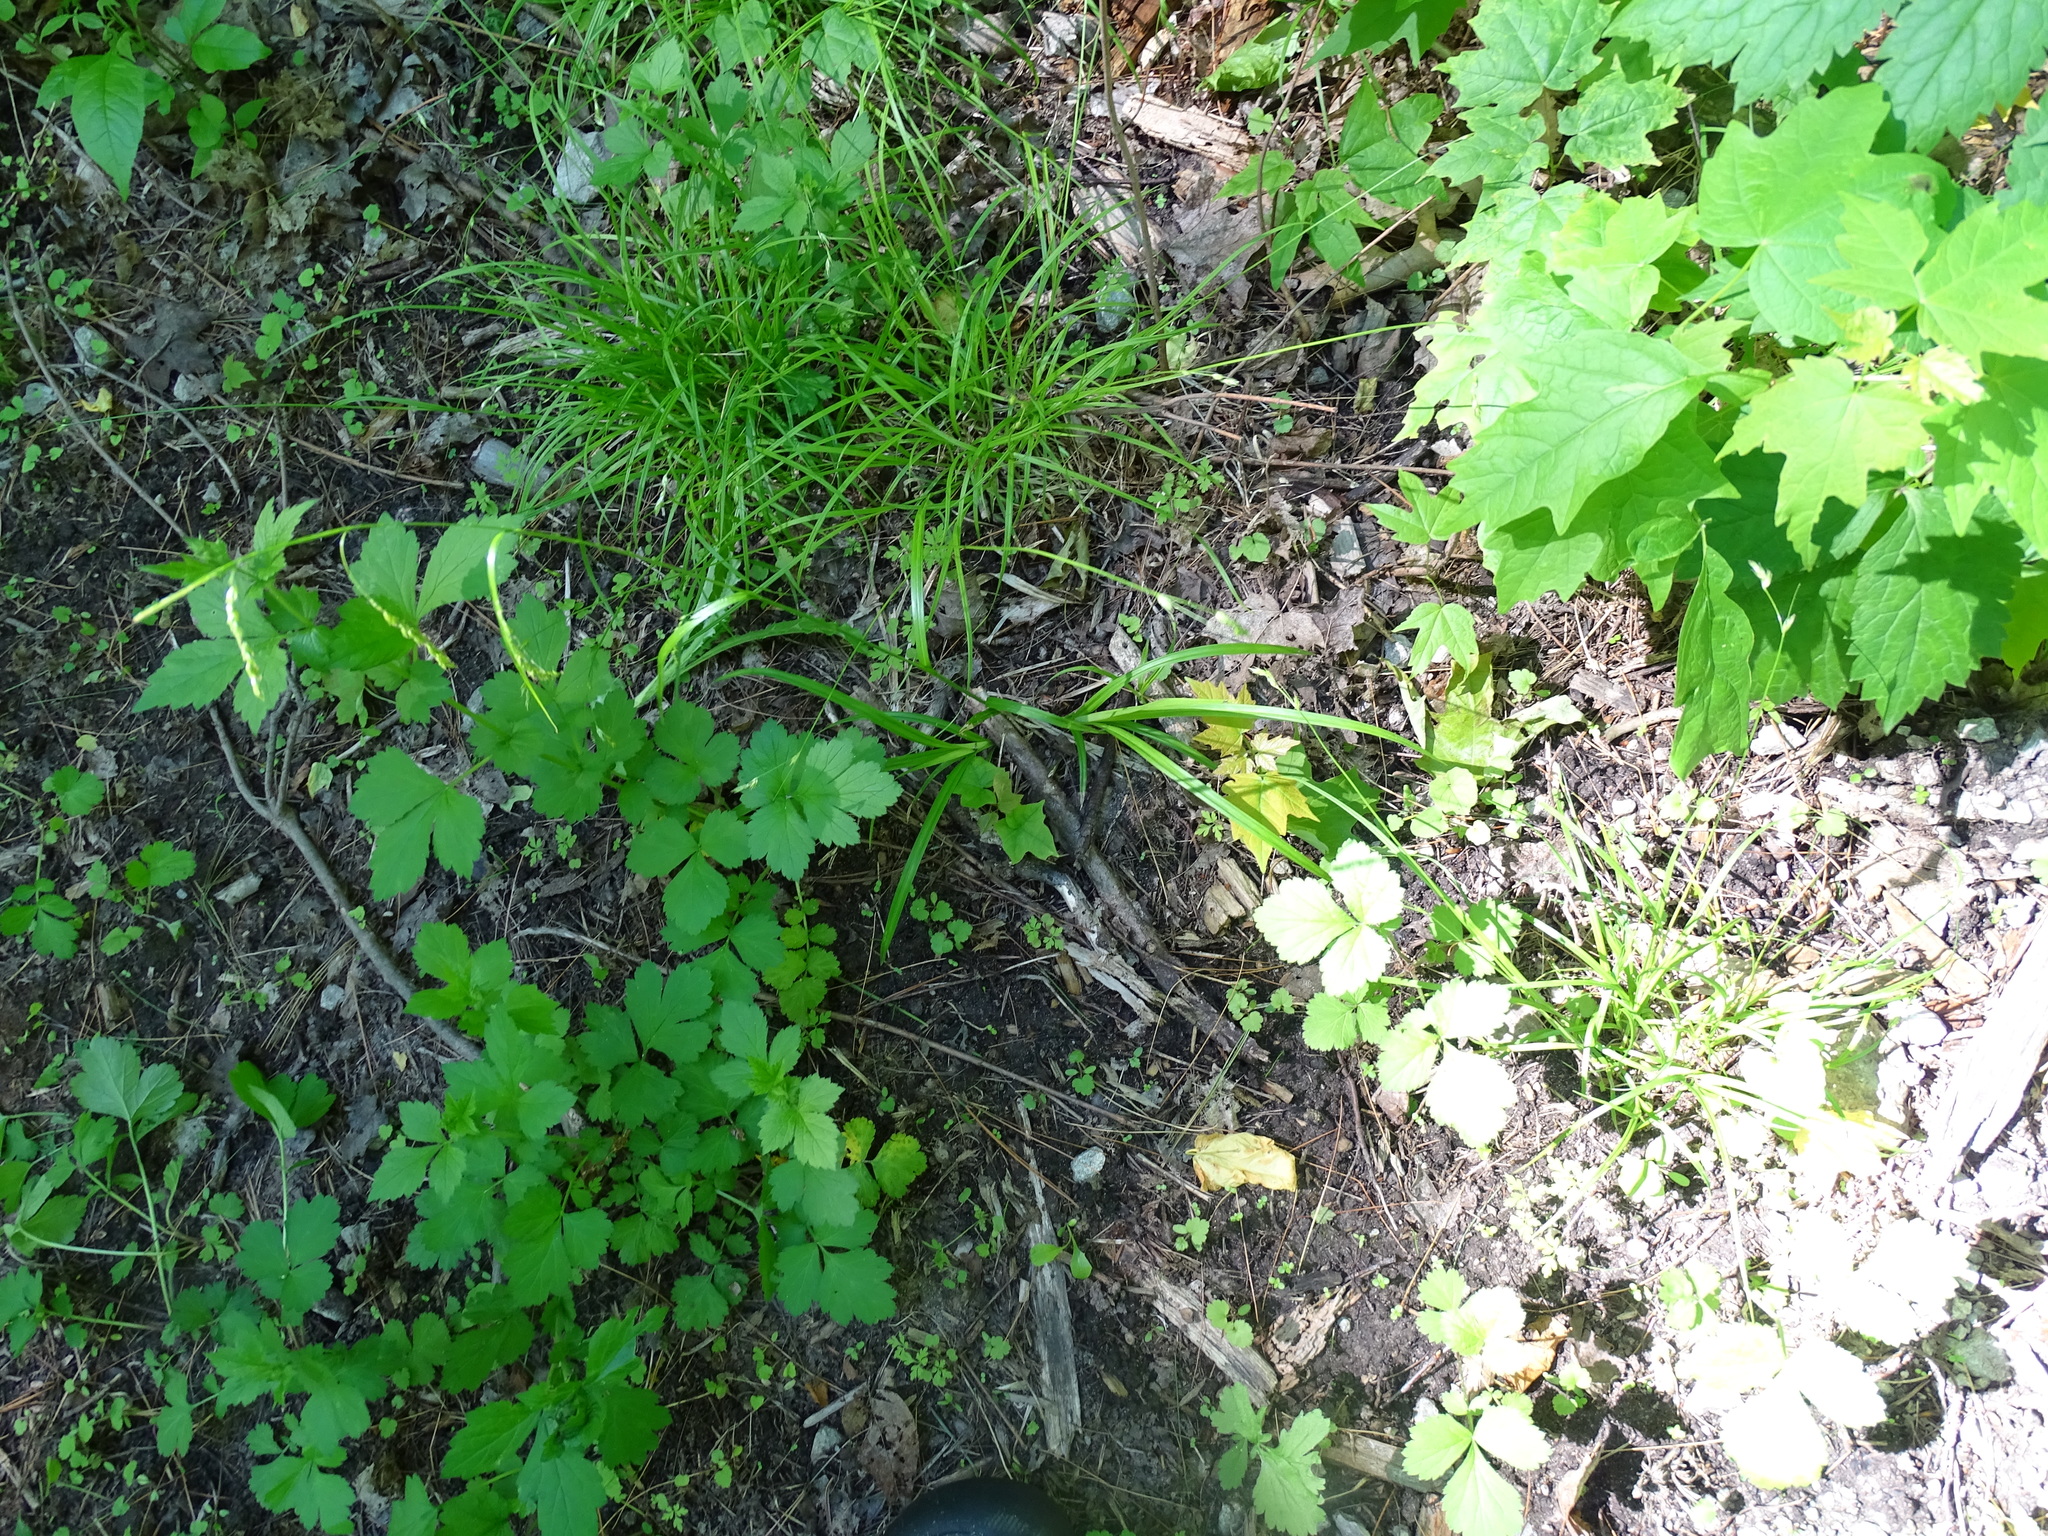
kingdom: Plantae
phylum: Tracheophyta
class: Liliopsida
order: Poales
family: Cyperaceae
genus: Carex
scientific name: Carex arctata
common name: Black sedge
